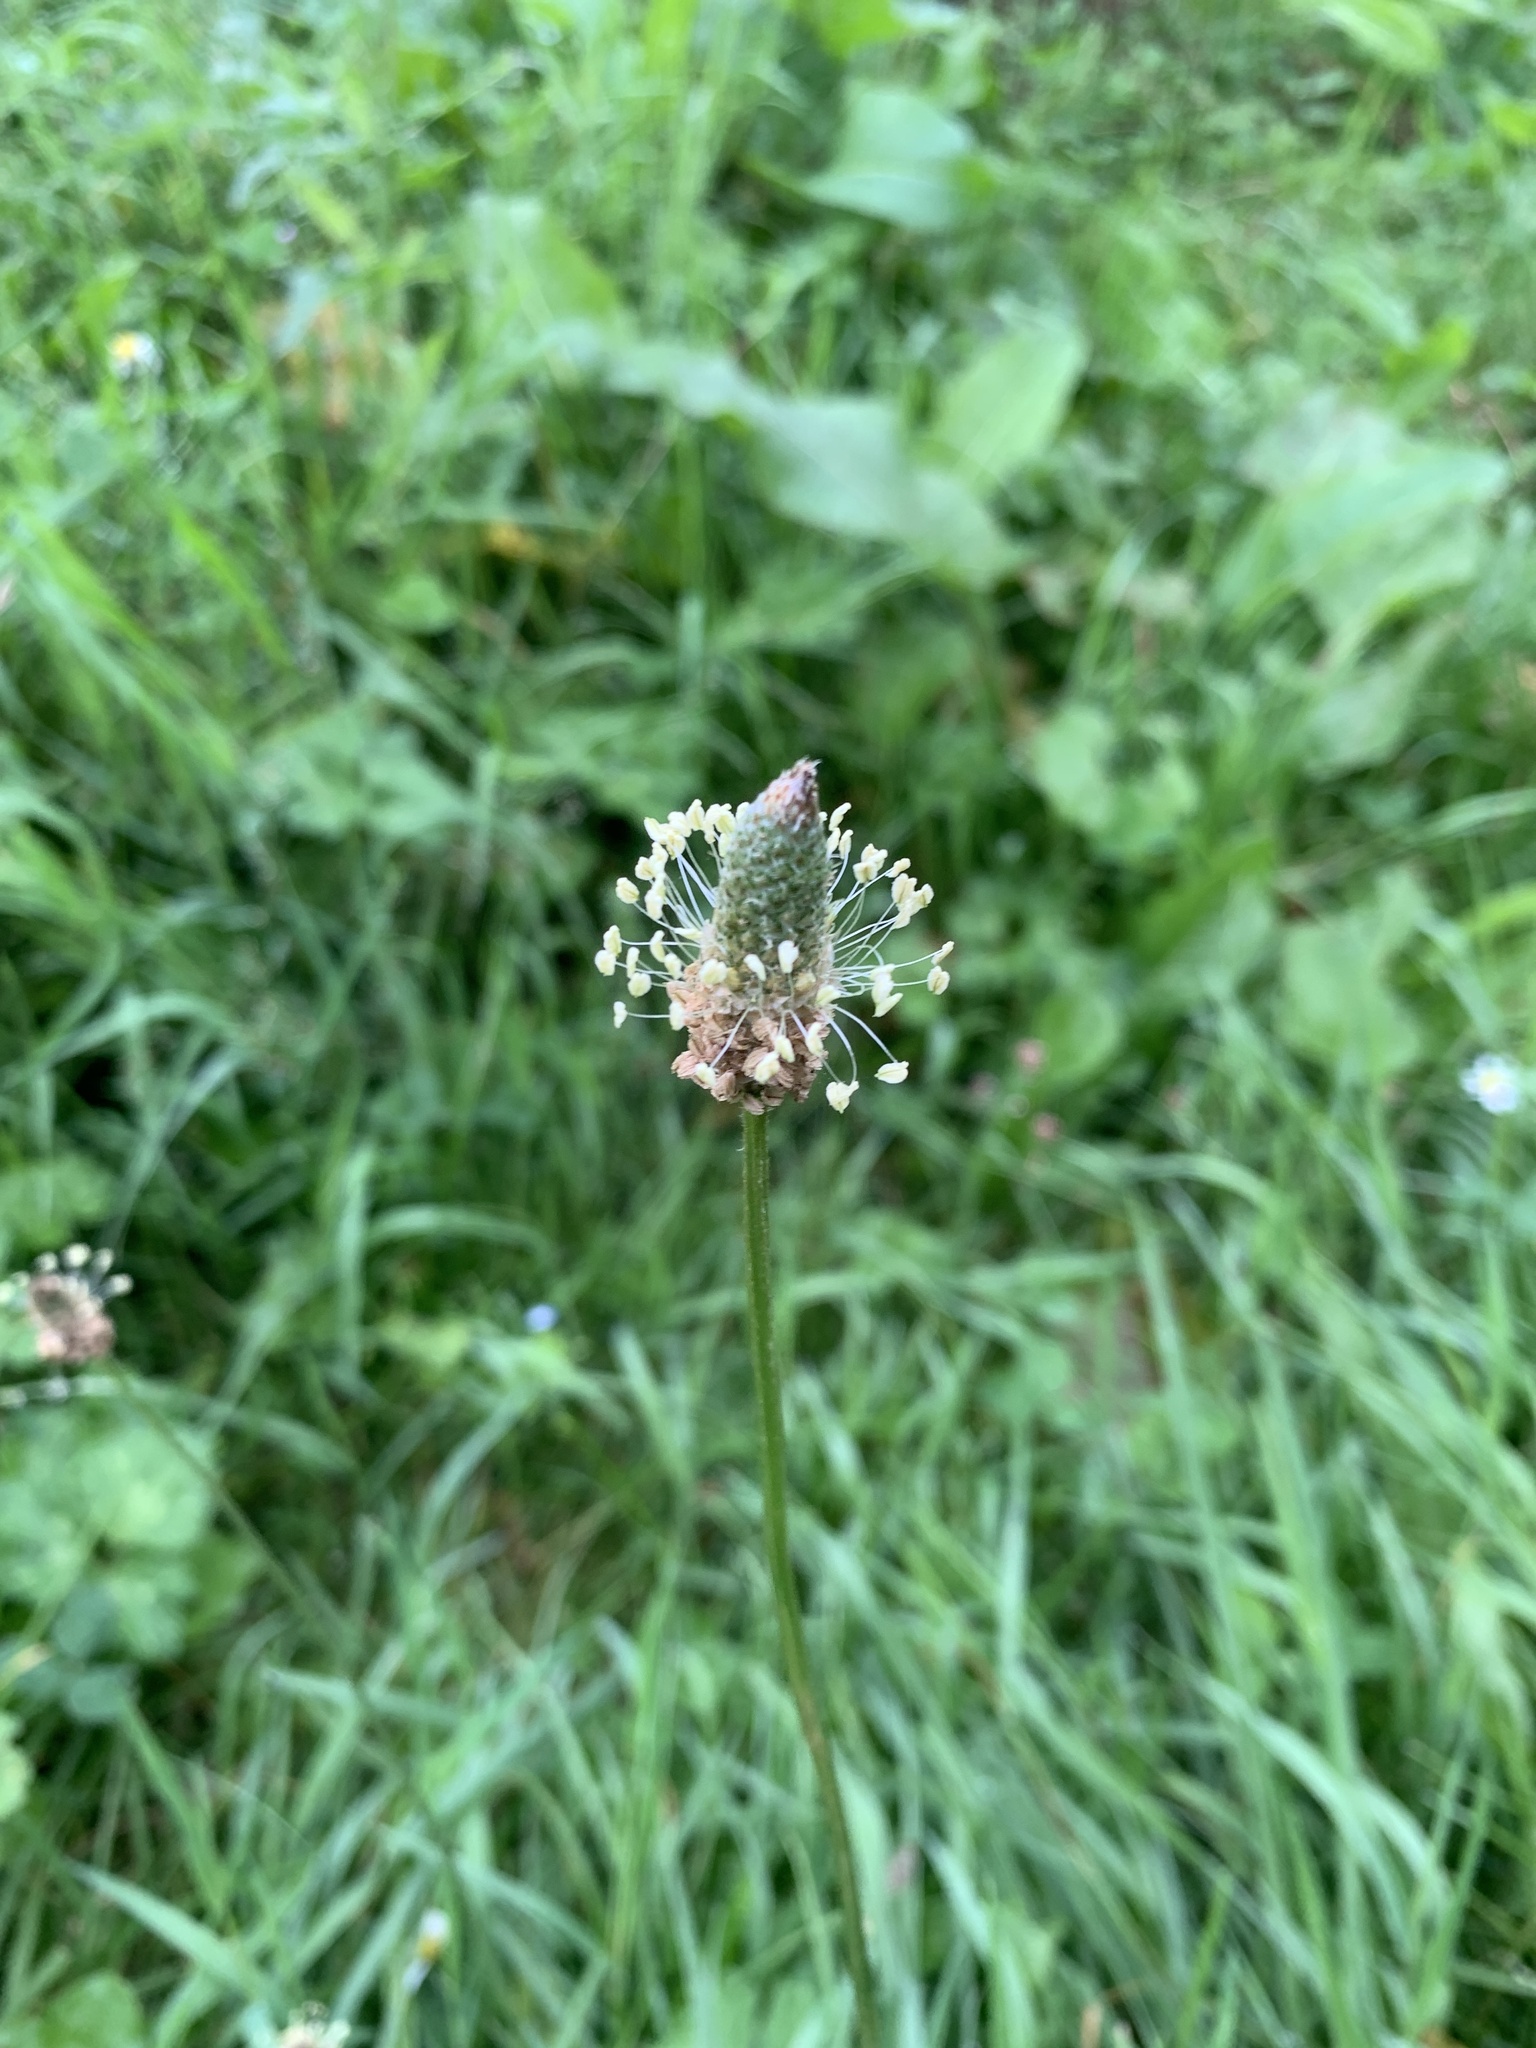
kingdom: Plantae
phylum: Tracheophyta
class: Magnoliopsida
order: Lamiales
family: Plantaginaceae
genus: Plantago
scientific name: Plantago lanceolata
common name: Ribwort plantain
